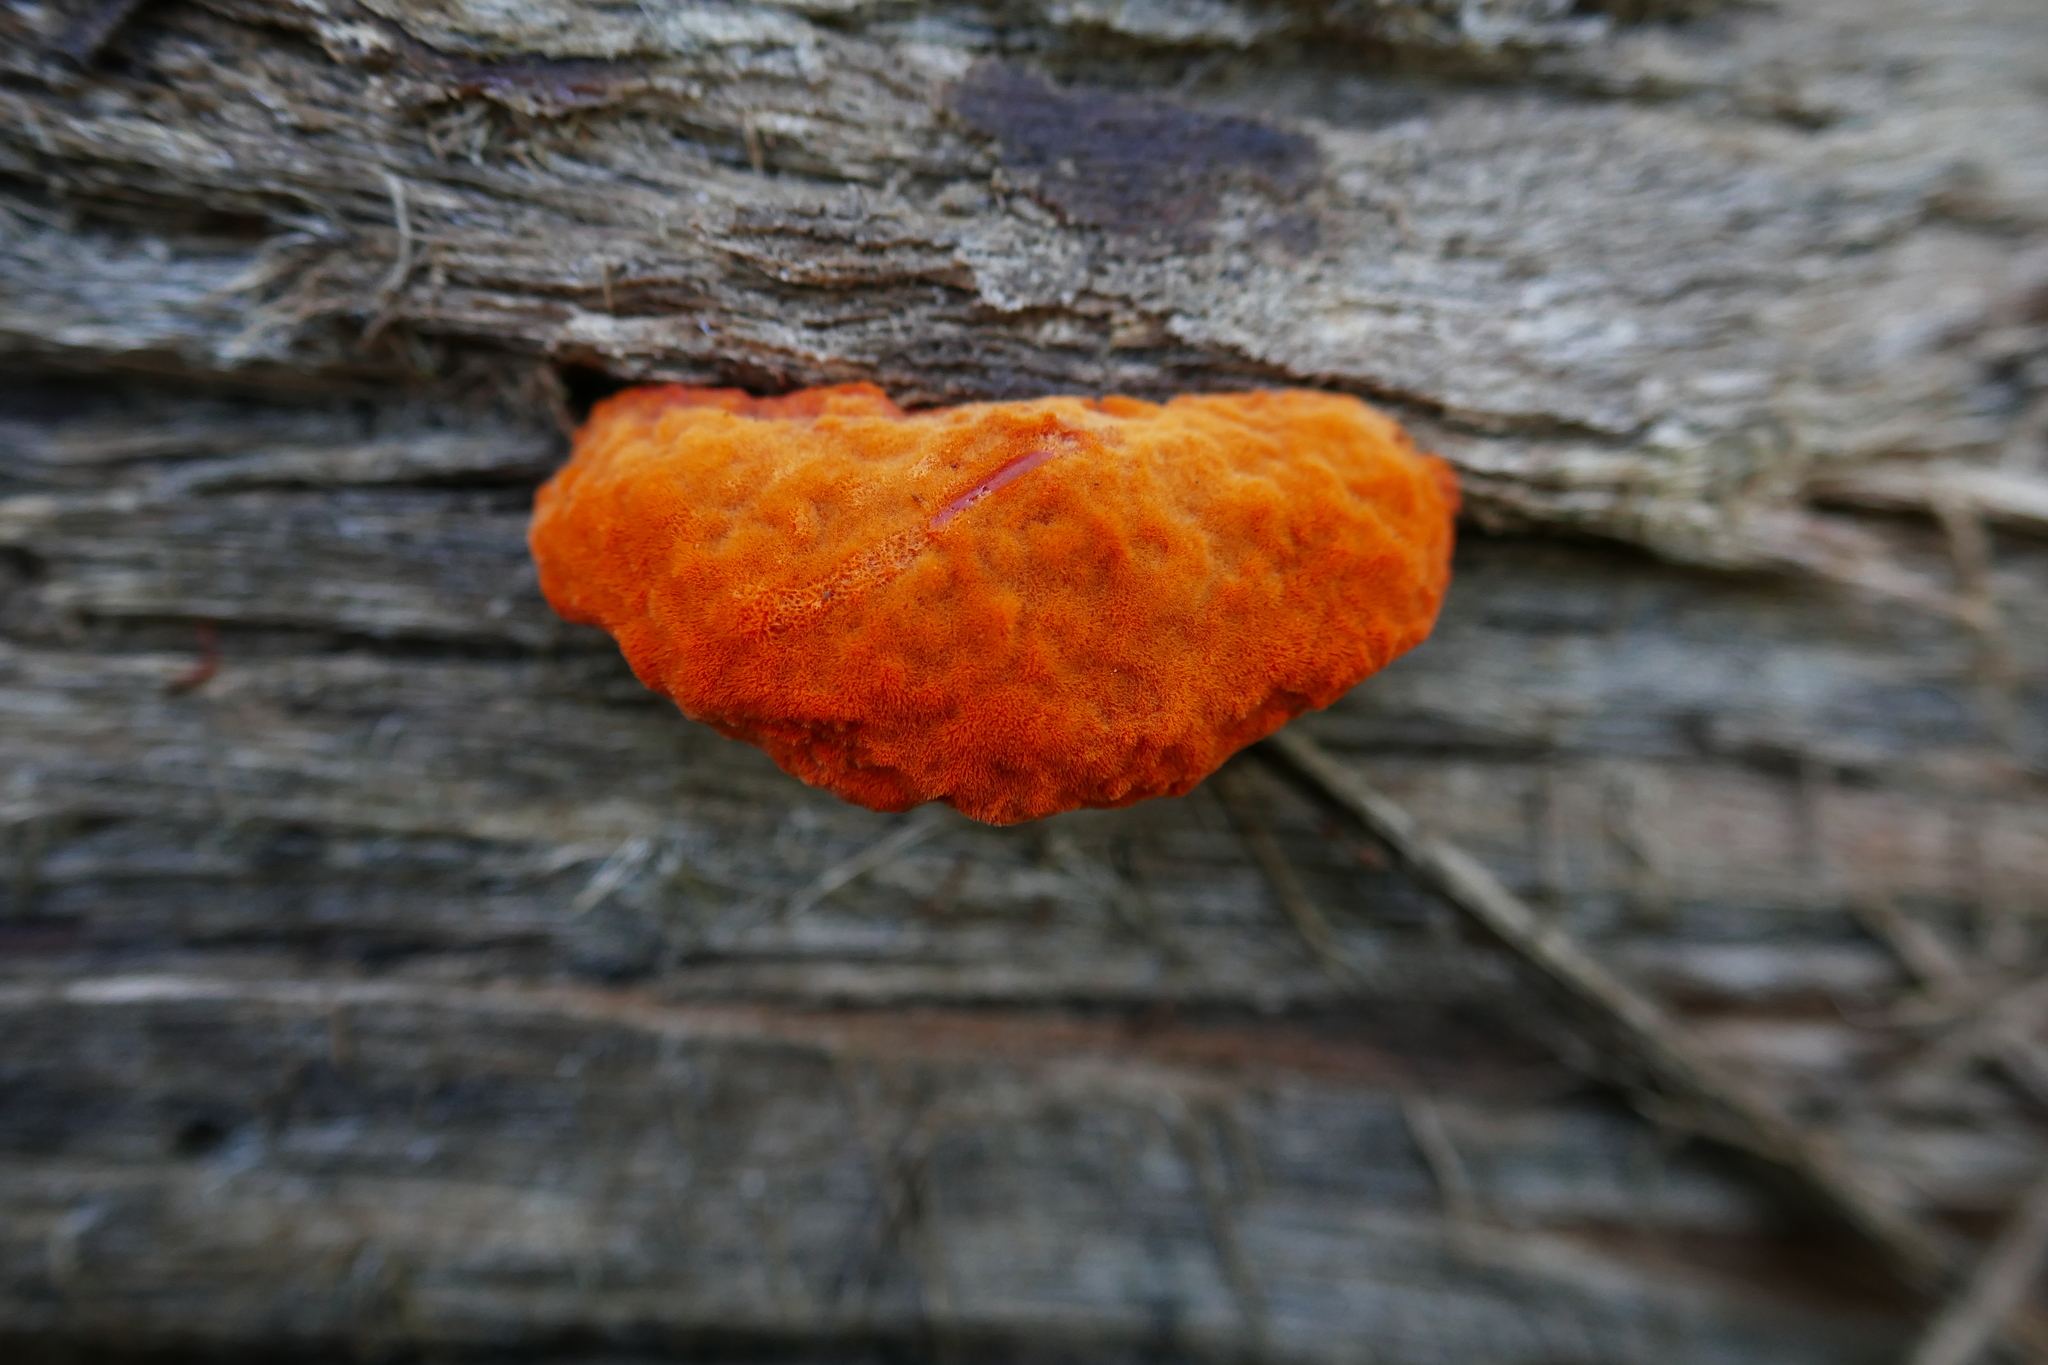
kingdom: Fungi
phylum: Basidiomycota
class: Agaricomycetes
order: Polyporales
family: Polyporaceae
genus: Trametes
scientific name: Trametes coccinea
